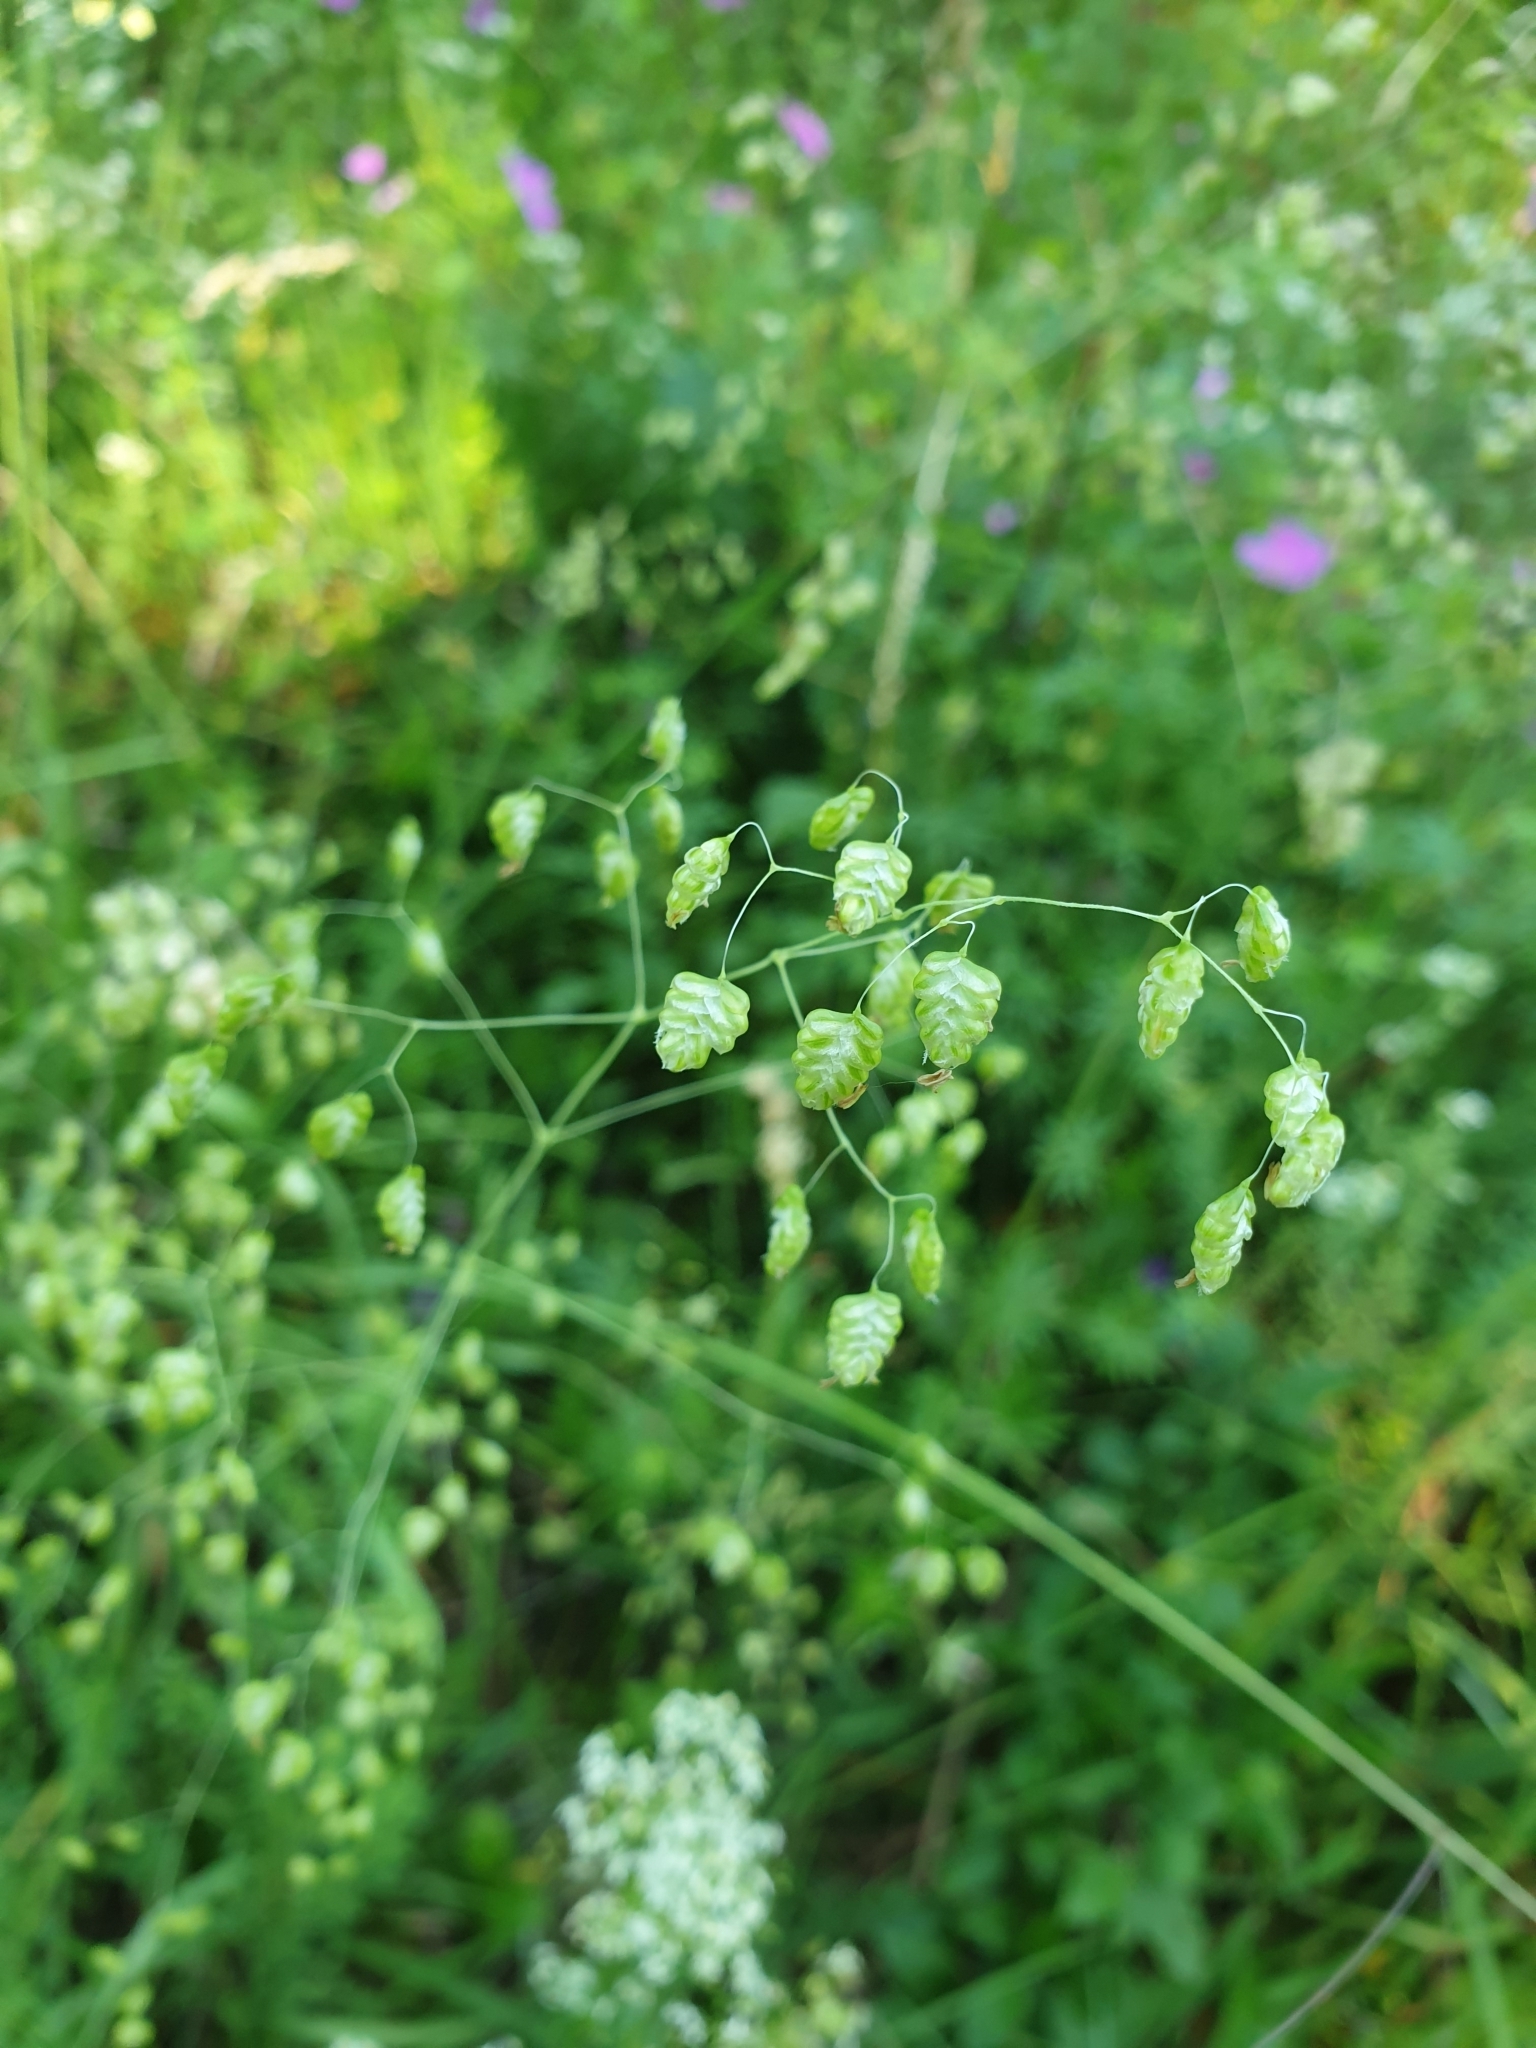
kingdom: Plantae
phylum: Tracheophyta
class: Liliopsida
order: Poales
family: Poaceae
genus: Briza
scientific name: Briza media
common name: Quaking grass
